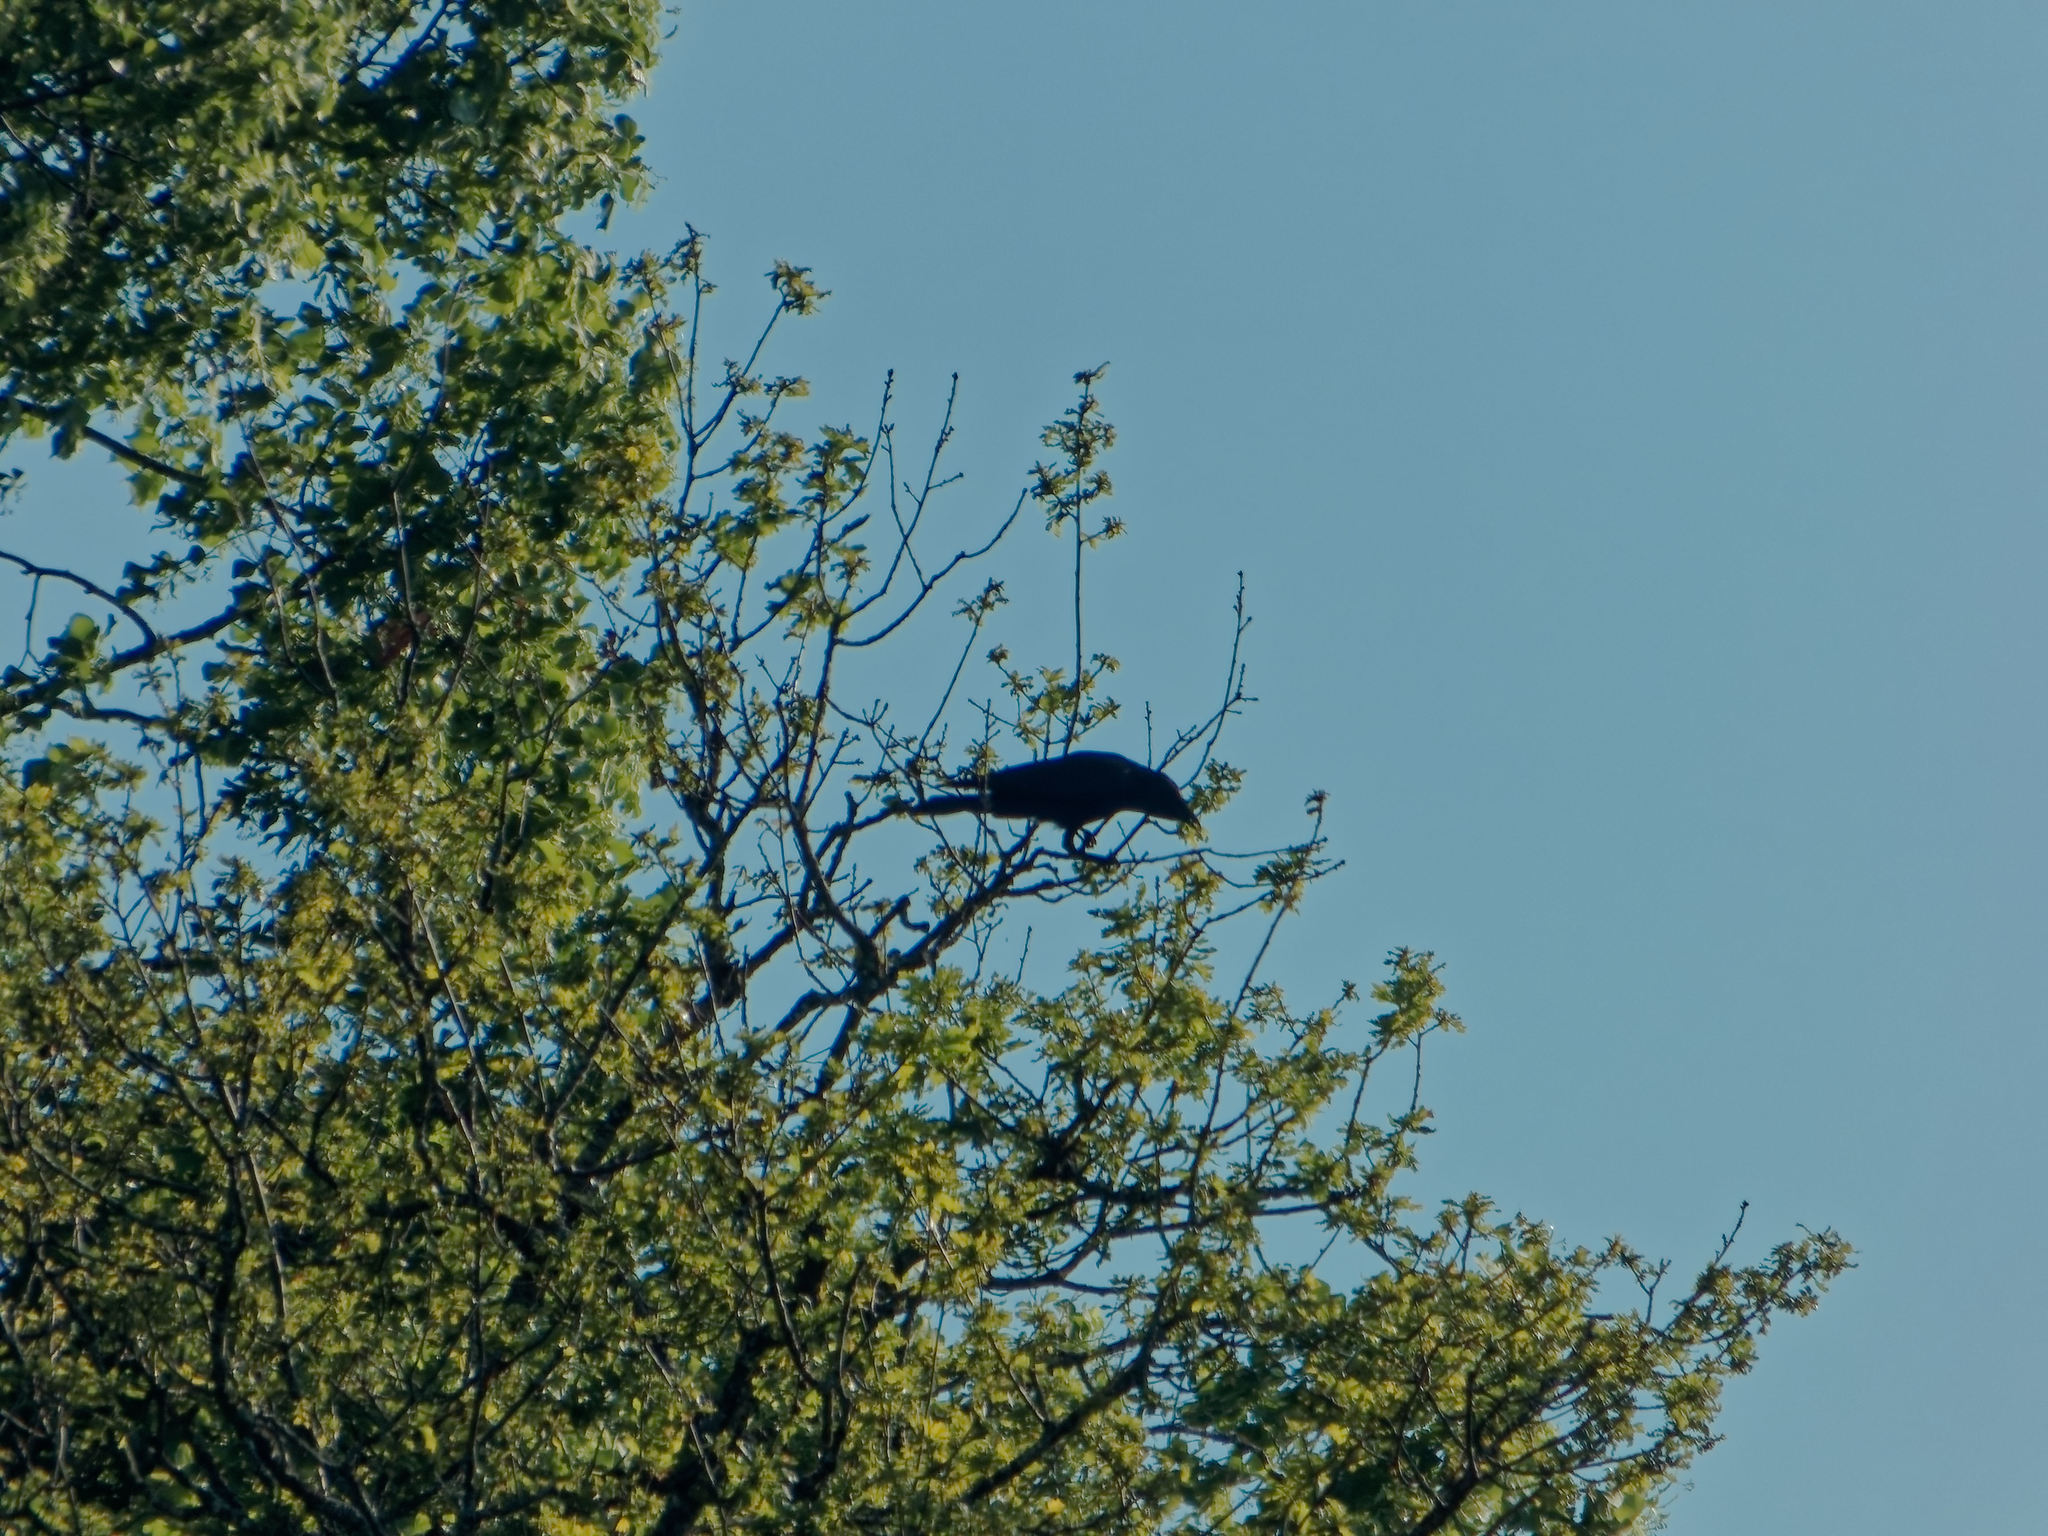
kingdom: Animalia
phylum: Chordata
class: Aves
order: Passeriformes
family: Corvidae
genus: Corvus
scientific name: Corvus corone
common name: Carrion crow
